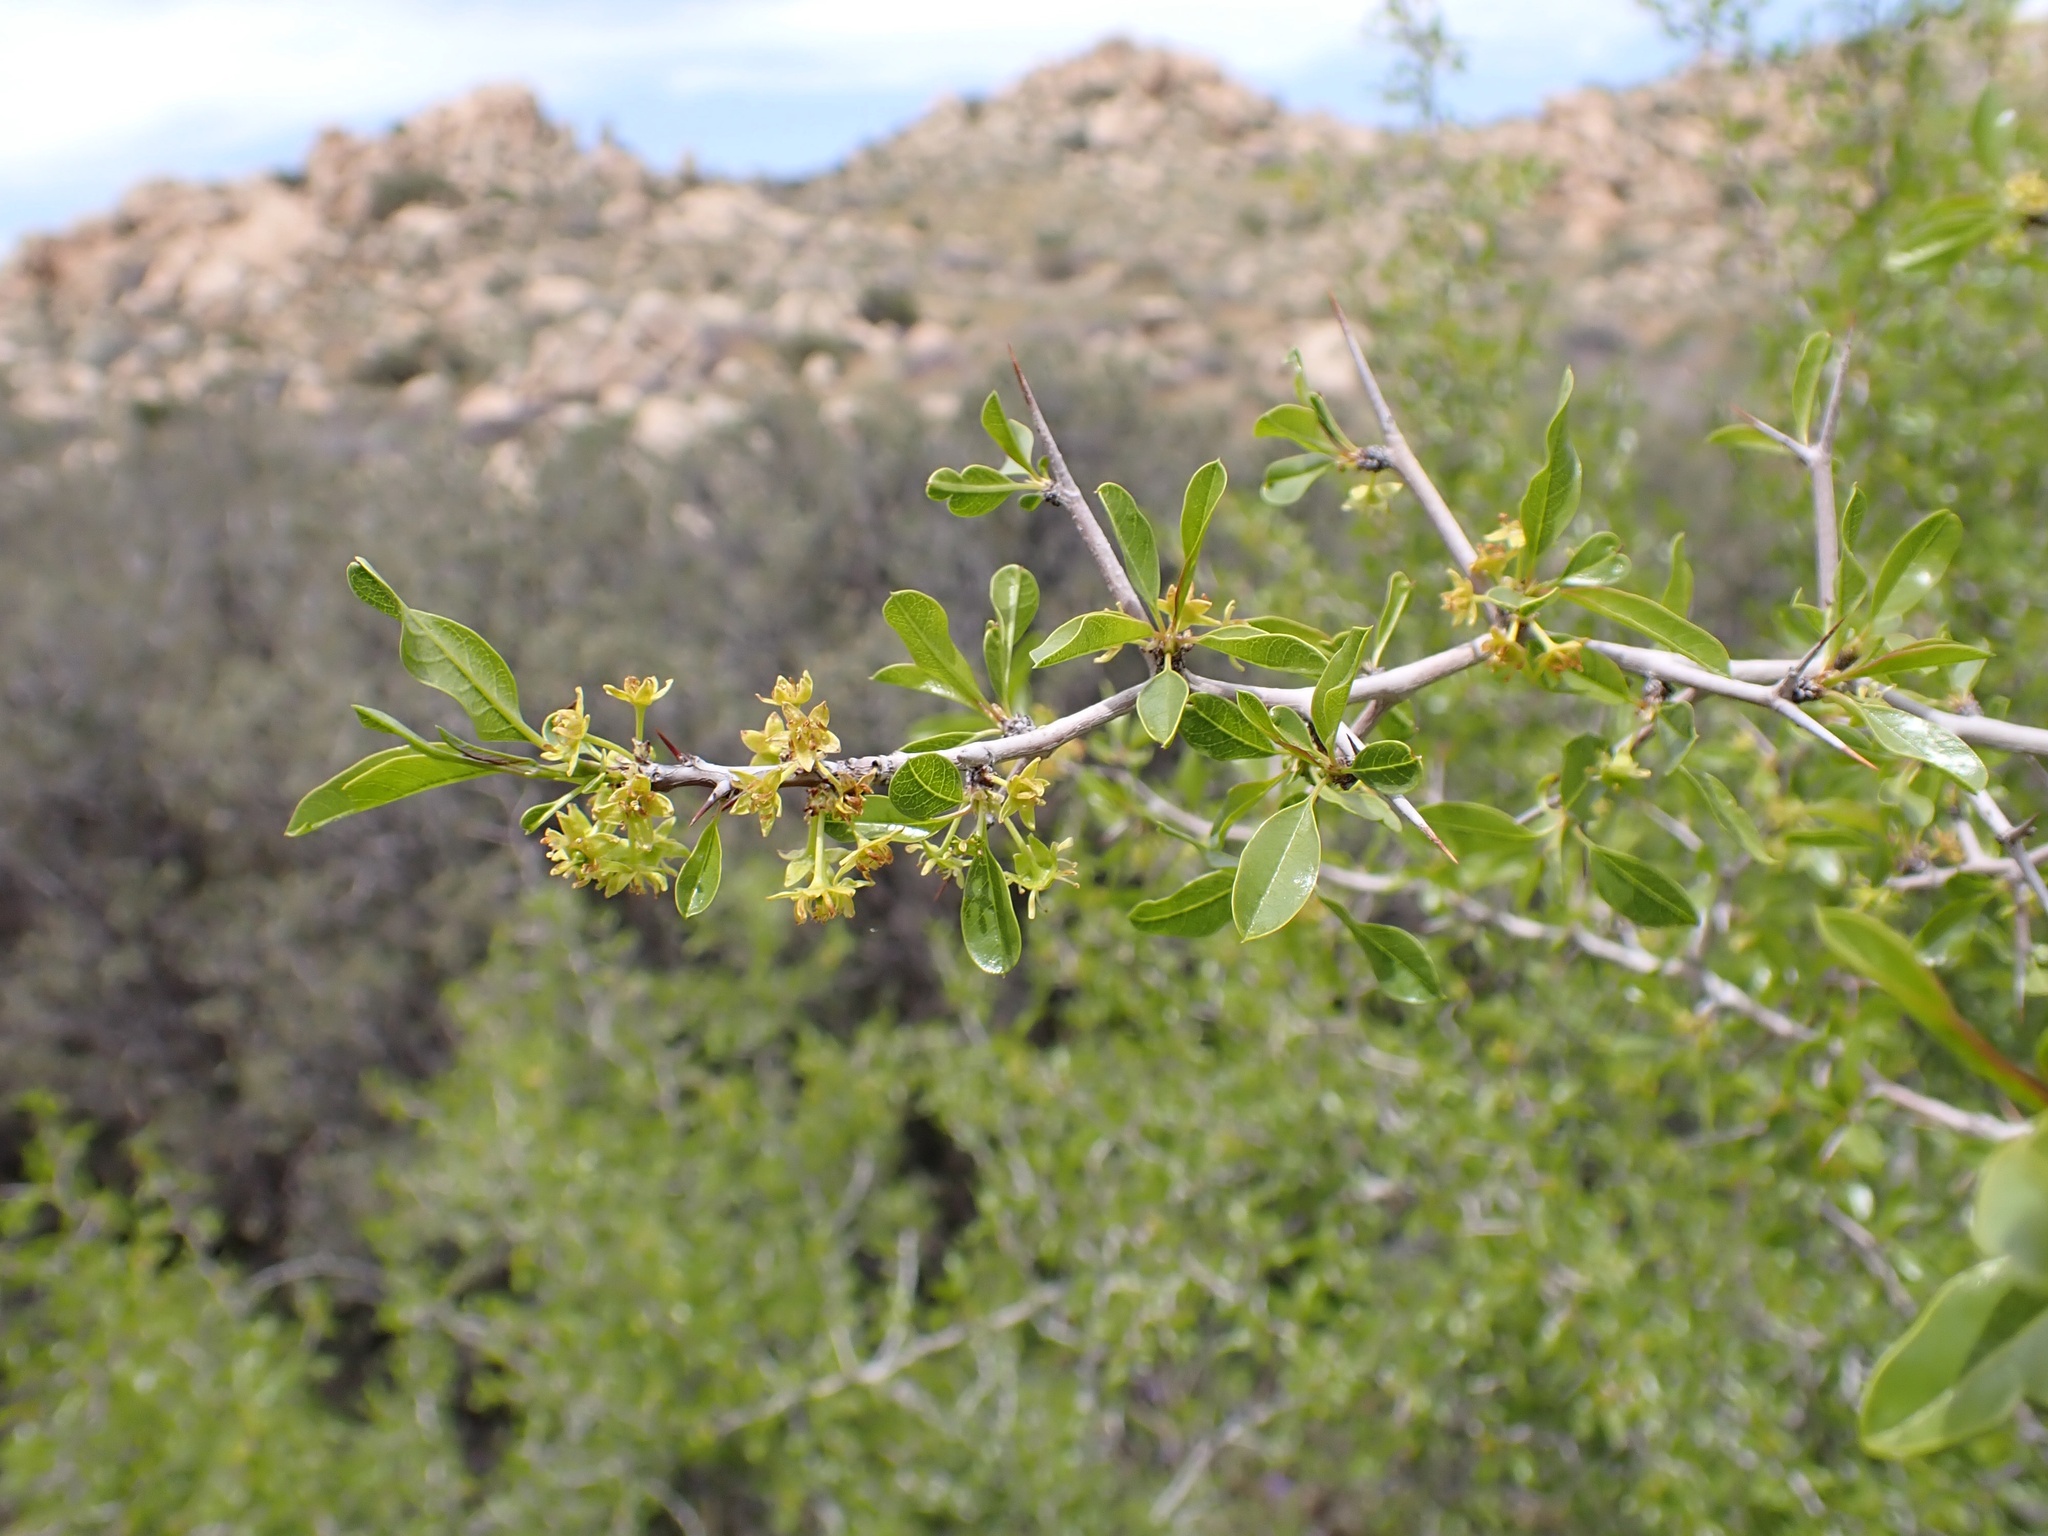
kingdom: Plantae
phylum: Tracheophyta
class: Magnoliopsida
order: Rosales
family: Rhamnaceae
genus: Pseudoziziphus
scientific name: Pseudoziziphus parryi
